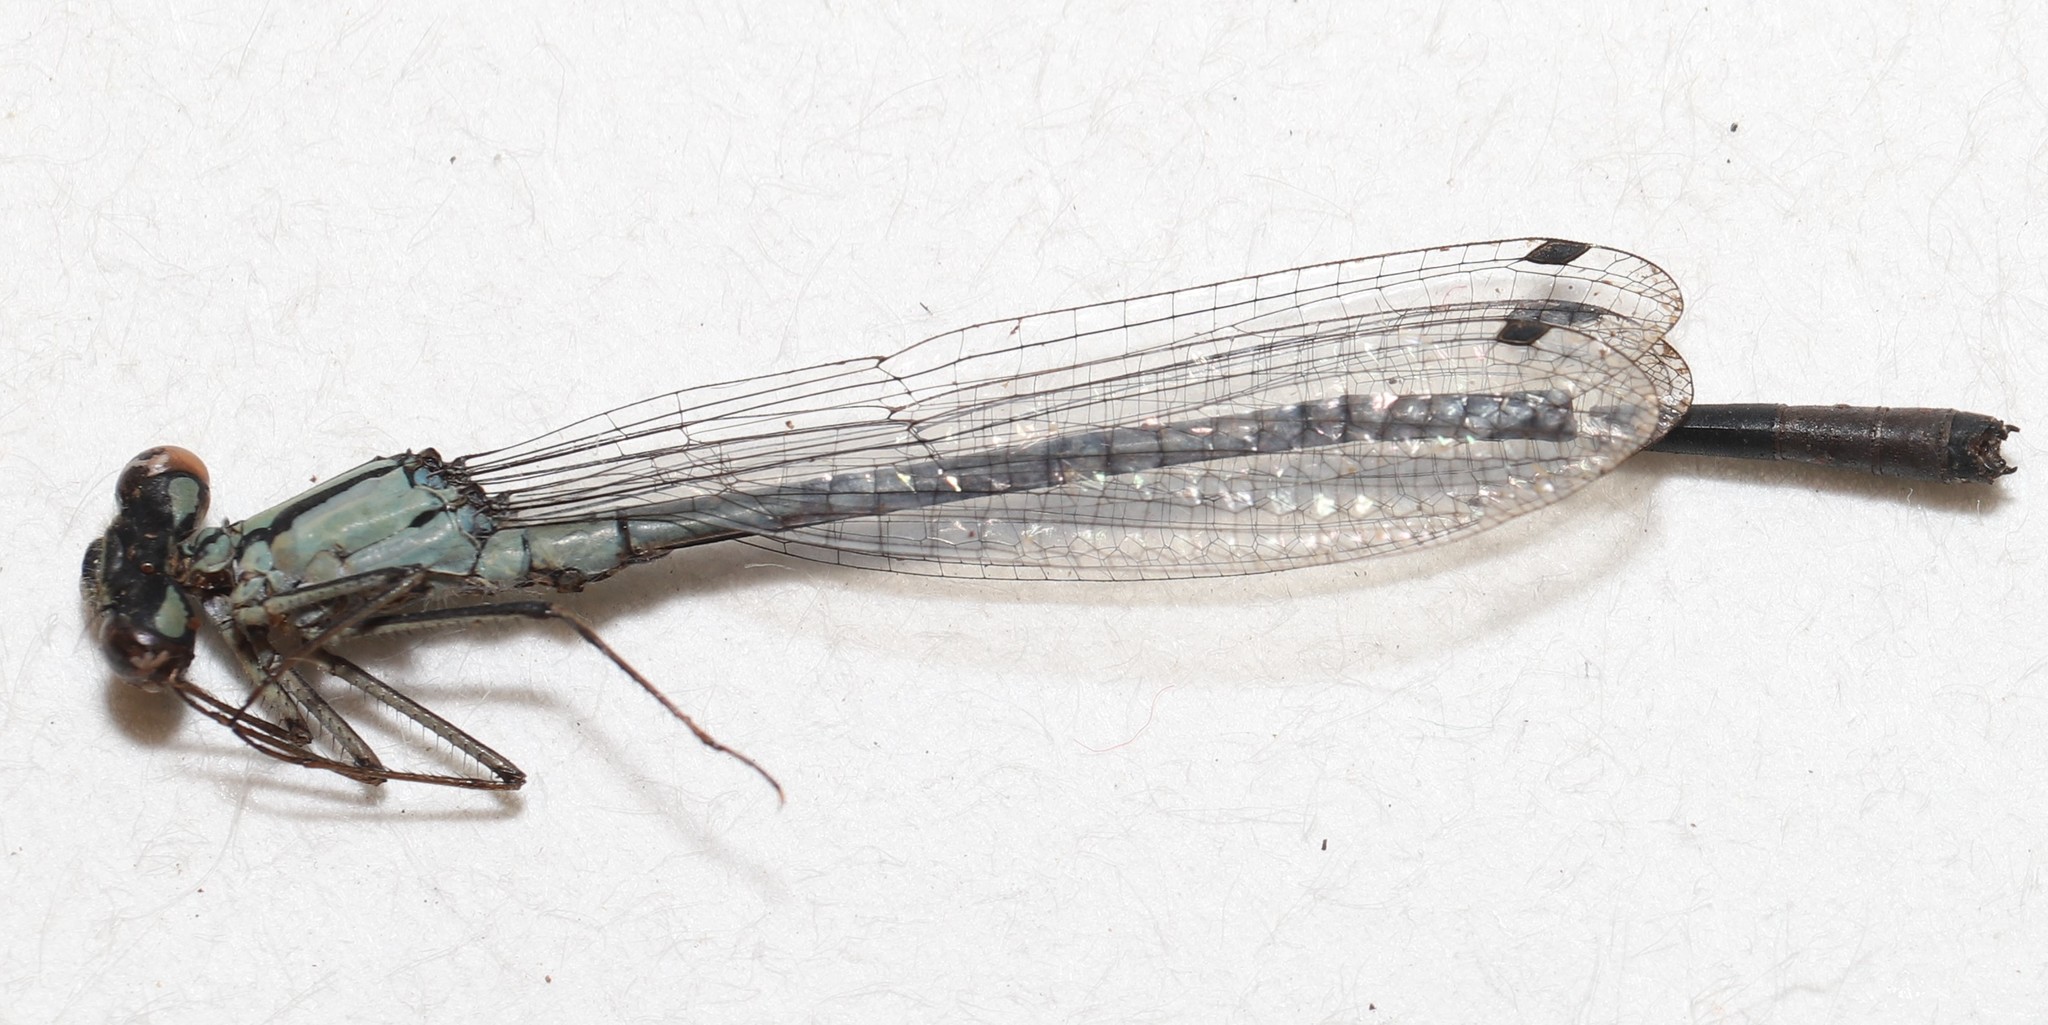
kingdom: Animalia
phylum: Arthropoda
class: Insecta
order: Odonata
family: Coenagrionidae
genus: Enallagma
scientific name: Enallagma annexum
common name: Northern bluet
